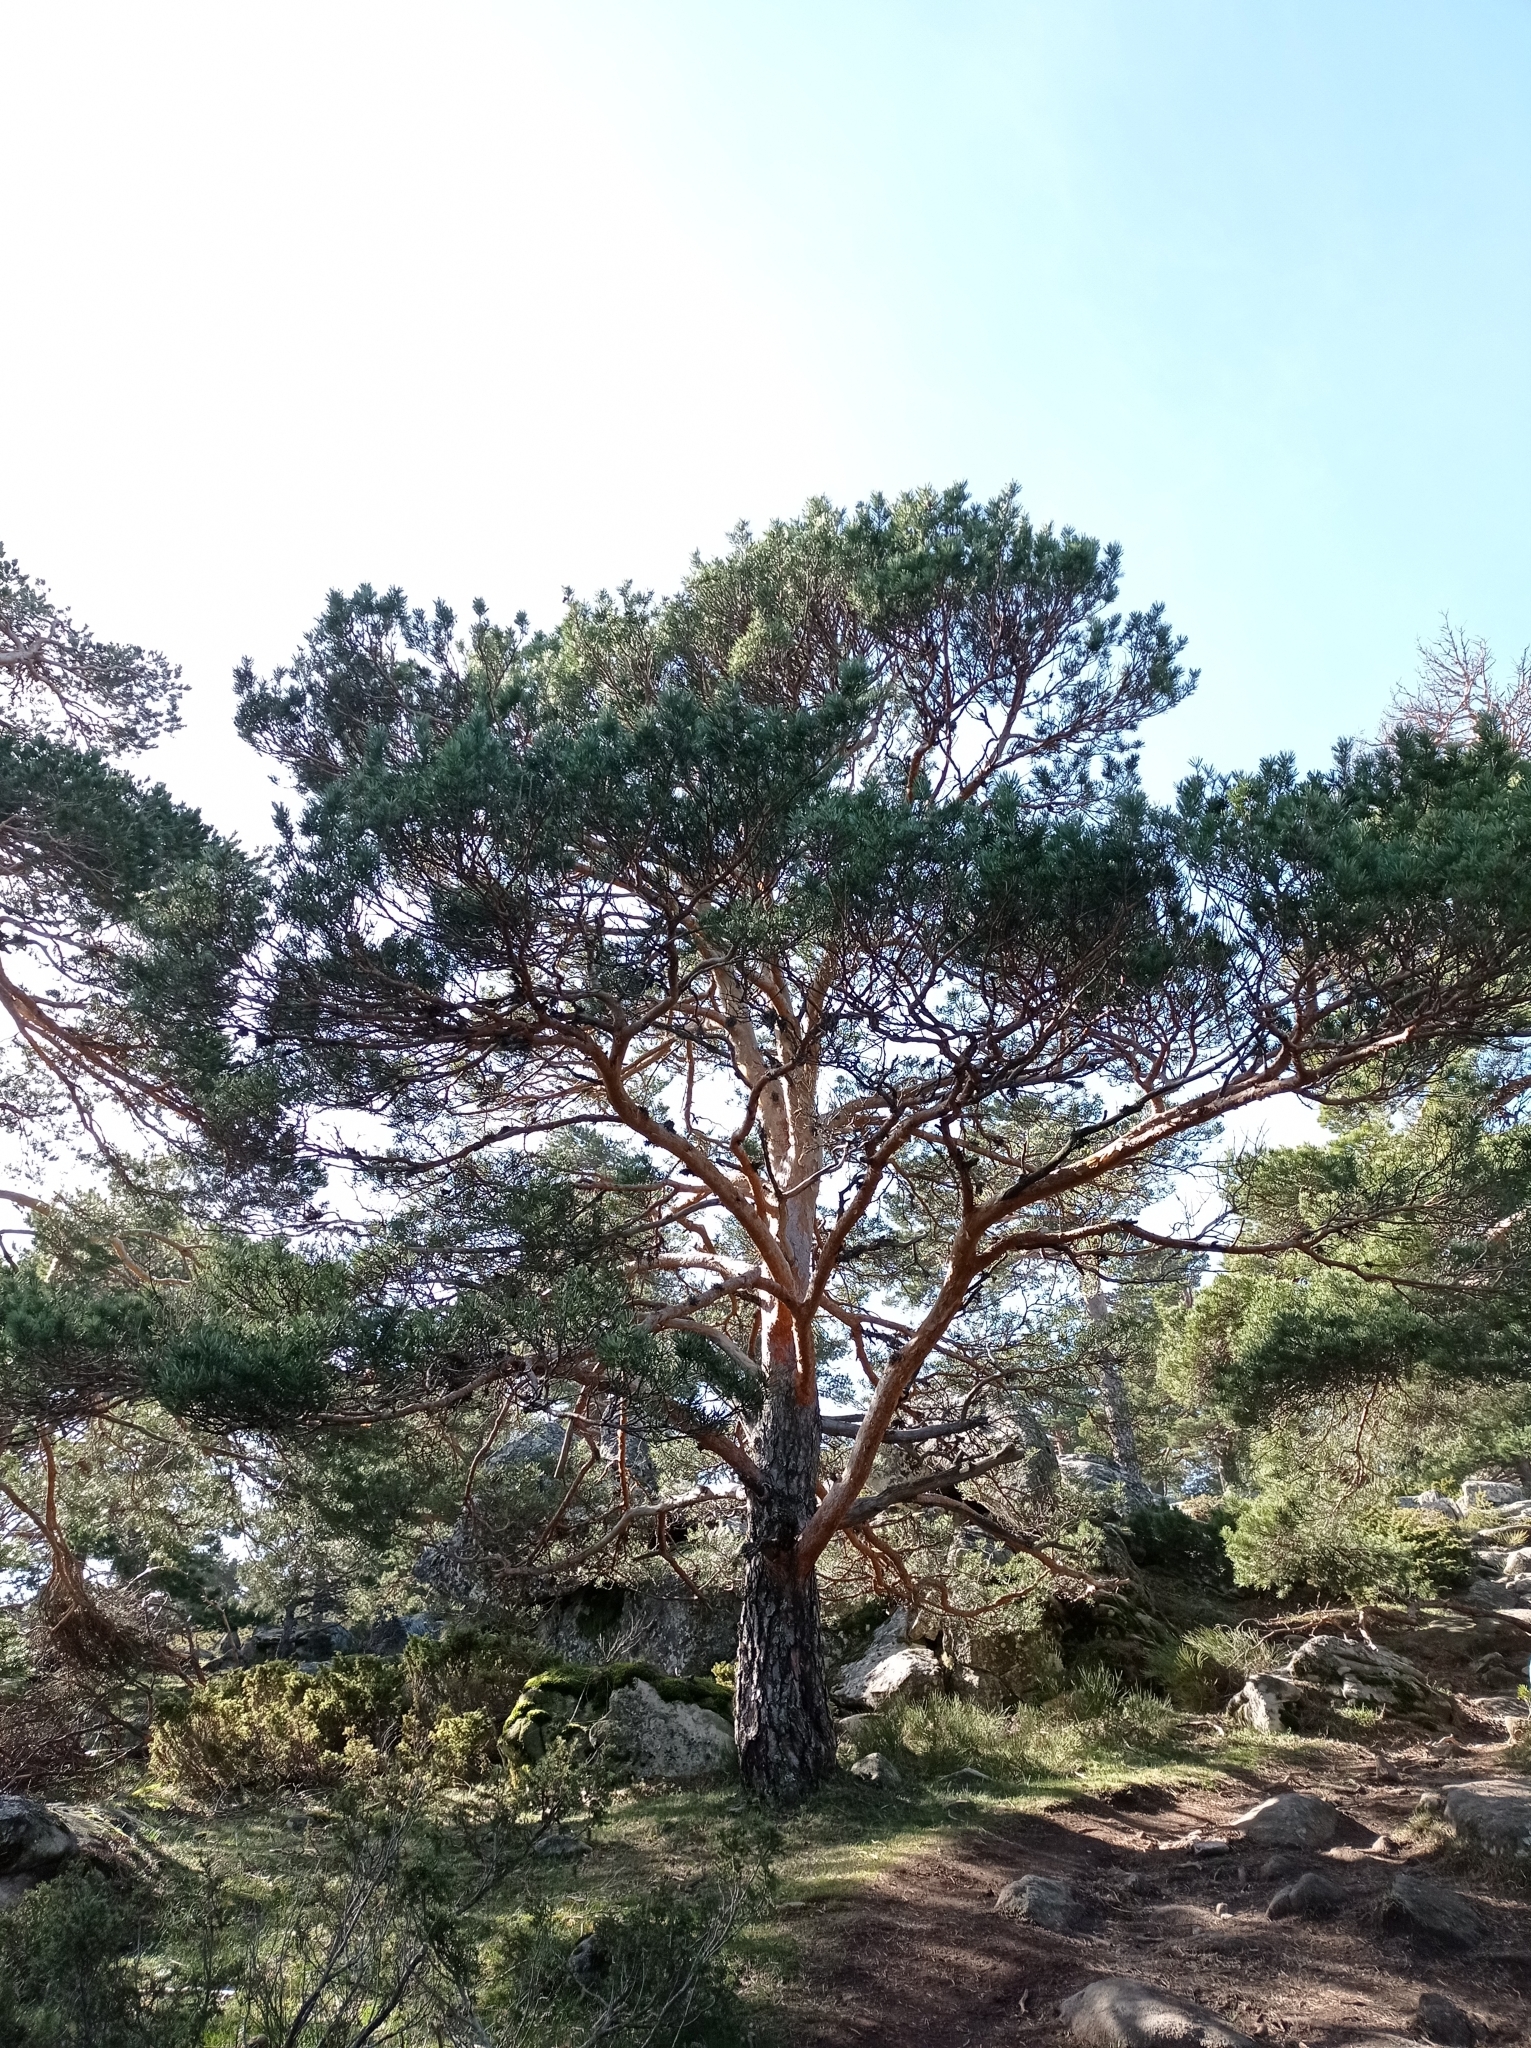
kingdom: Plantae
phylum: Tracheophyta
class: Pinopsida
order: Pinales
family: Pinaceae
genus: Pinus
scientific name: Pinus sylvestris
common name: Scots pine
